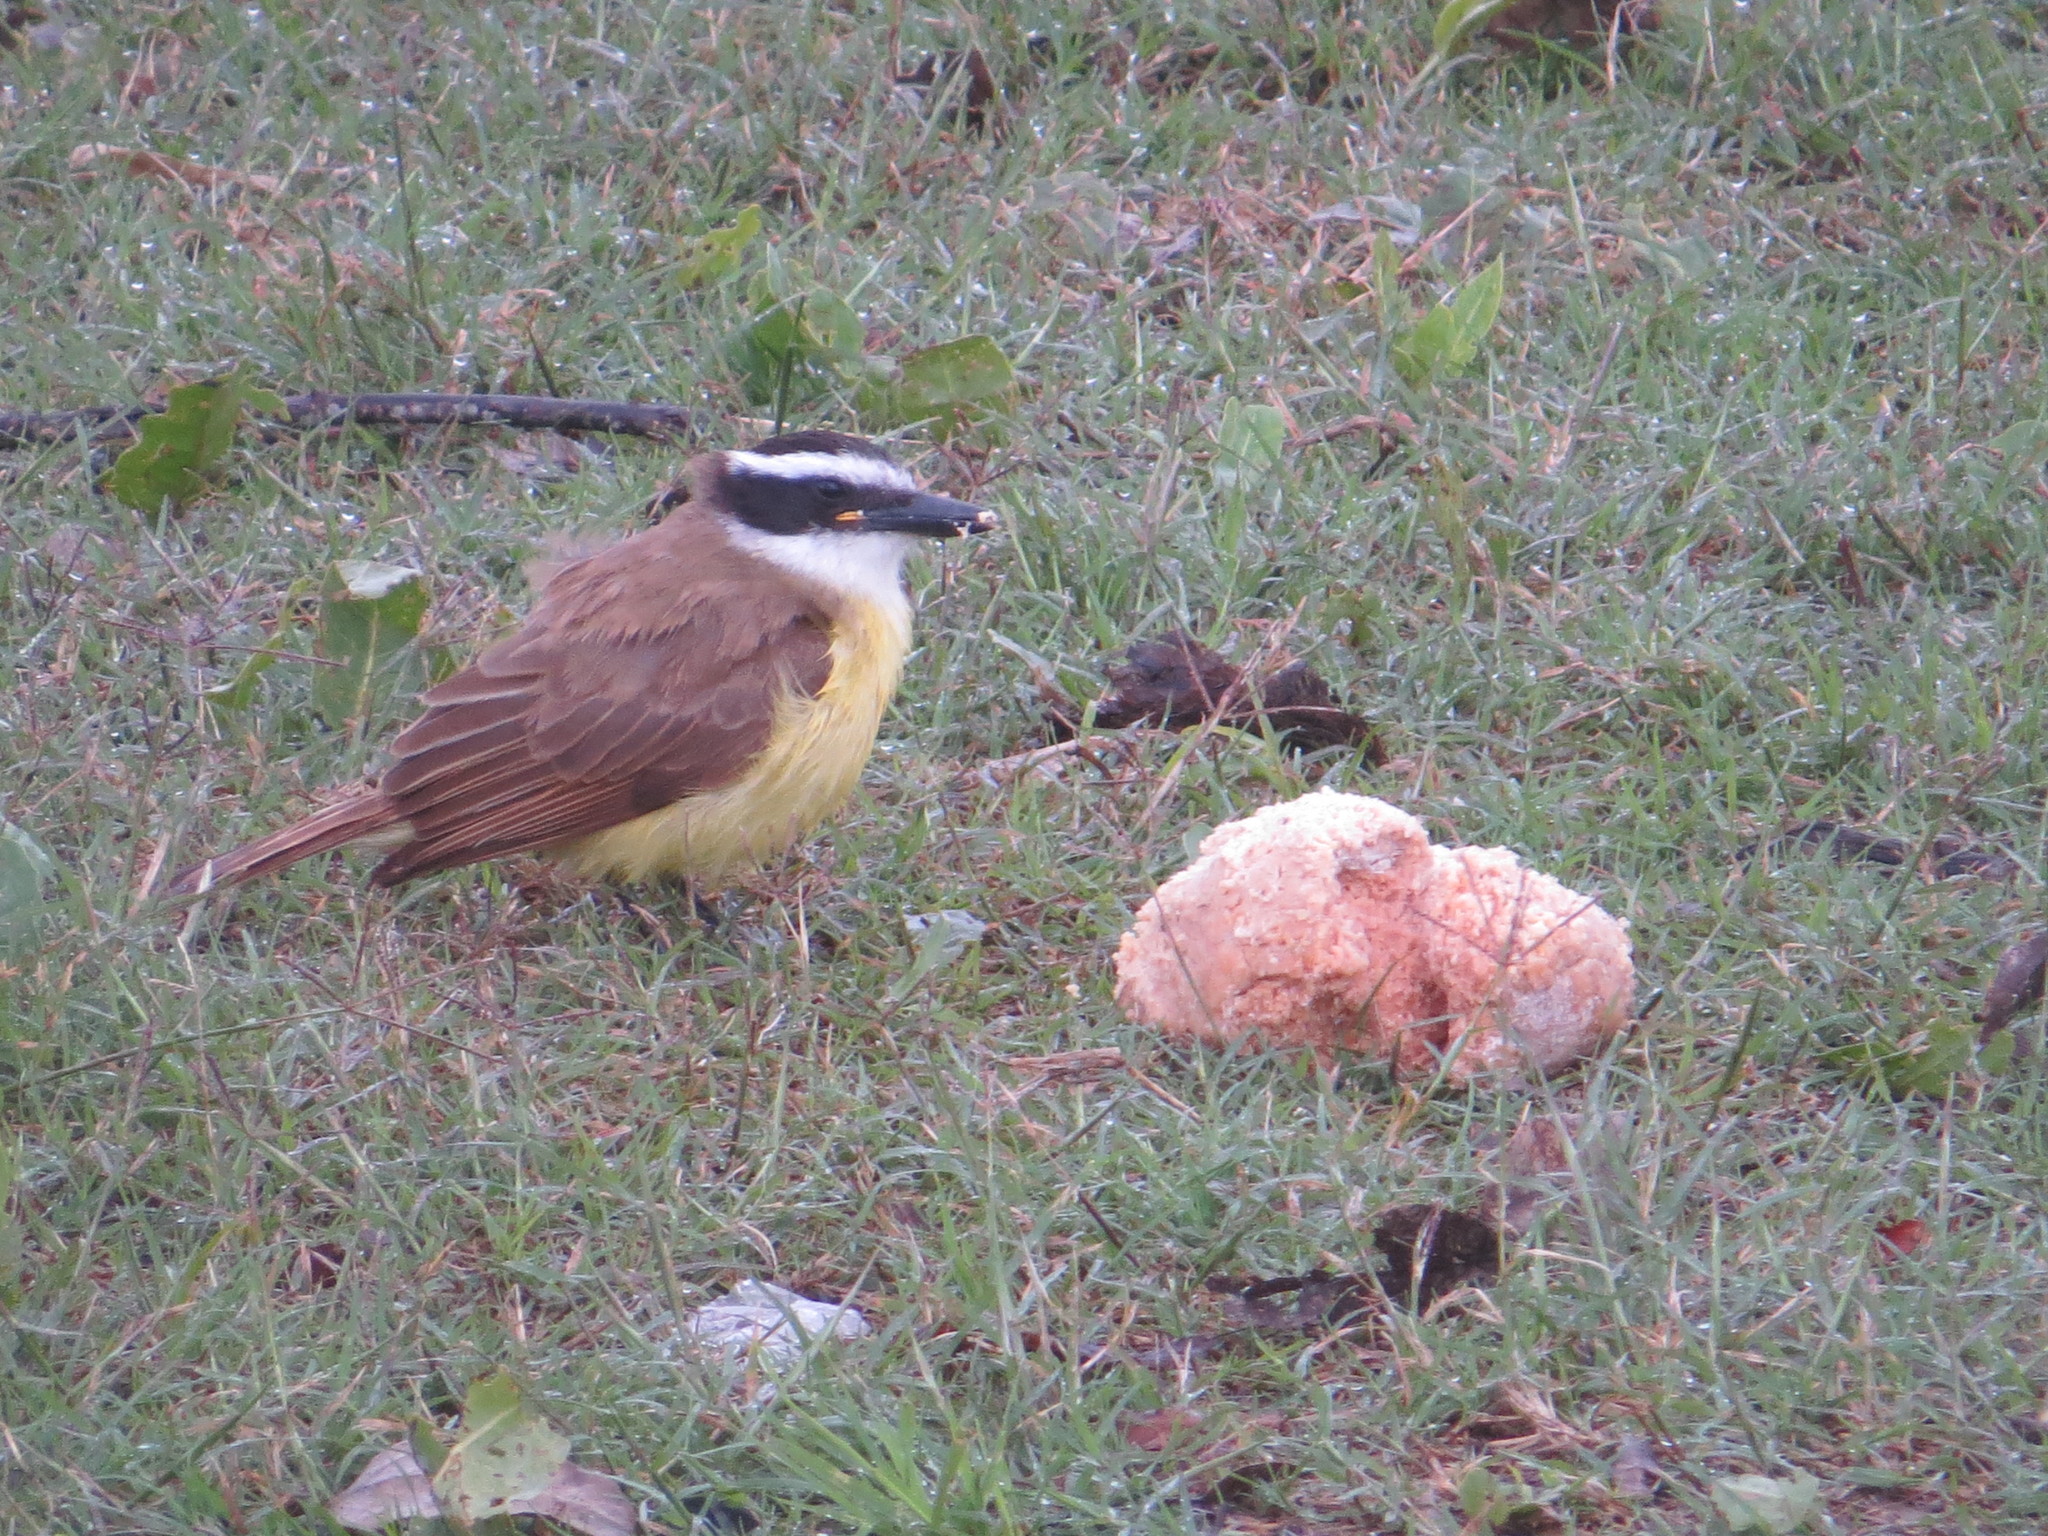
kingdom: Animalia
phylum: Chordata
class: Aves
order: Passeriformes
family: Tyrannidae
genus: Pitangus
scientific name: Pitangus sulphuratus
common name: Great kiskadee
